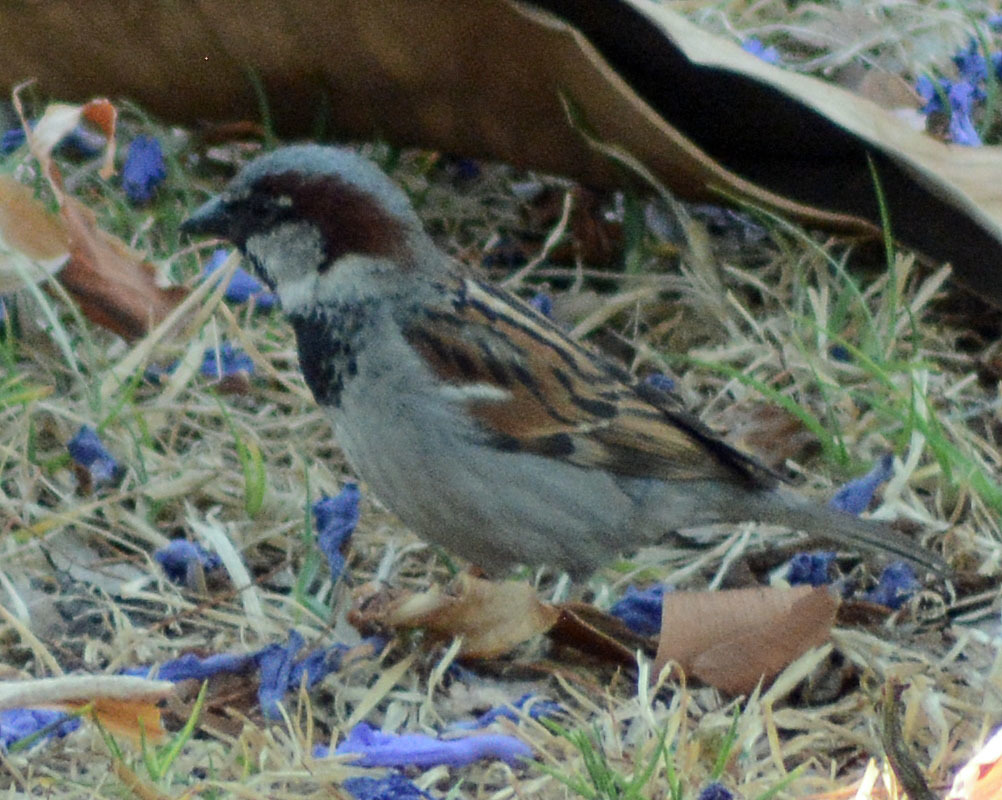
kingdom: Animalia
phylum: Chordata
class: Aves
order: Passeriformes
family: Passeridae
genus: Passer
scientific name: Passer domesticus
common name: House sparrow
